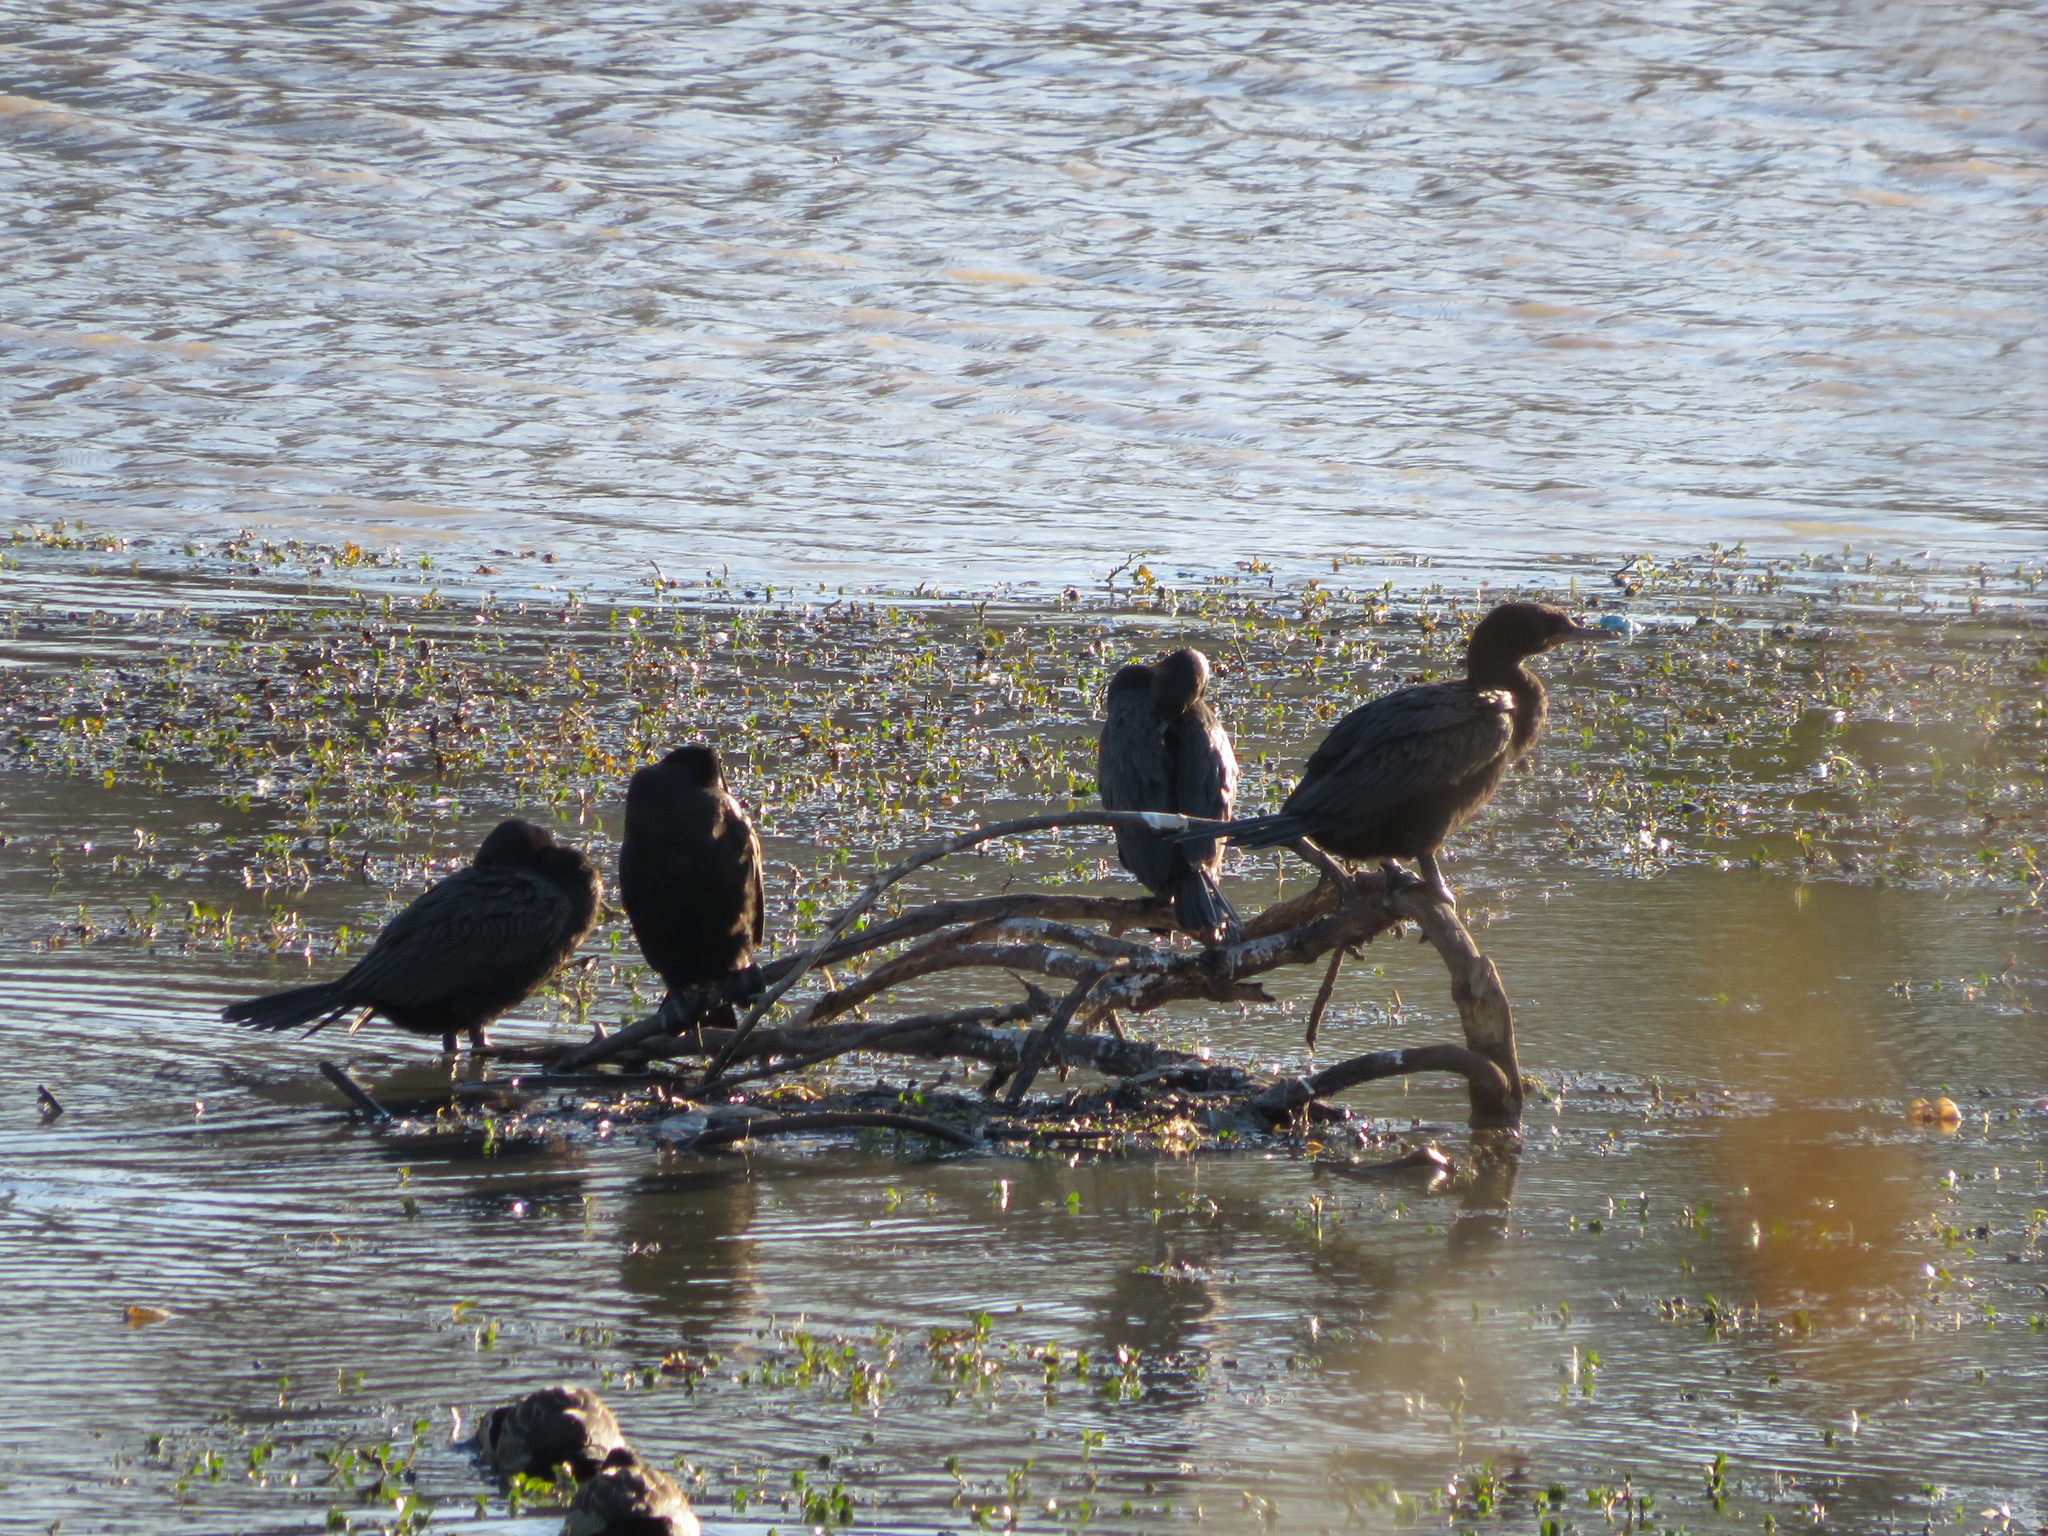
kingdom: Animalia
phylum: Chordata
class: Aves
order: Suliformes
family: Phalacrocoracidae
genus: Phalacrocorax
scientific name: Phalacrocorax brasilianus
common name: Neotropic cormorant
